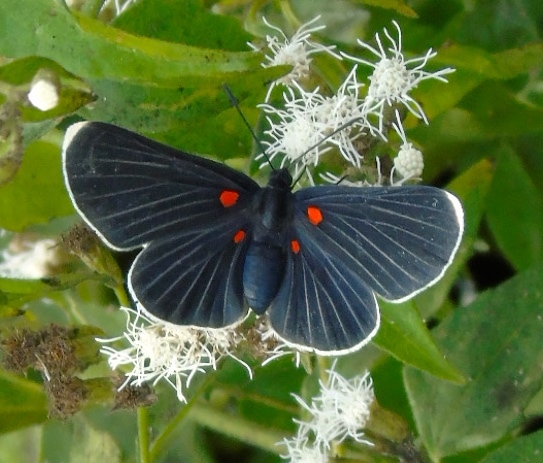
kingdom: Animalia
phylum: Arthropoda
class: Insecta
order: Lepidoptera
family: Lycaenidae
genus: Melanis
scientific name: Melanis
